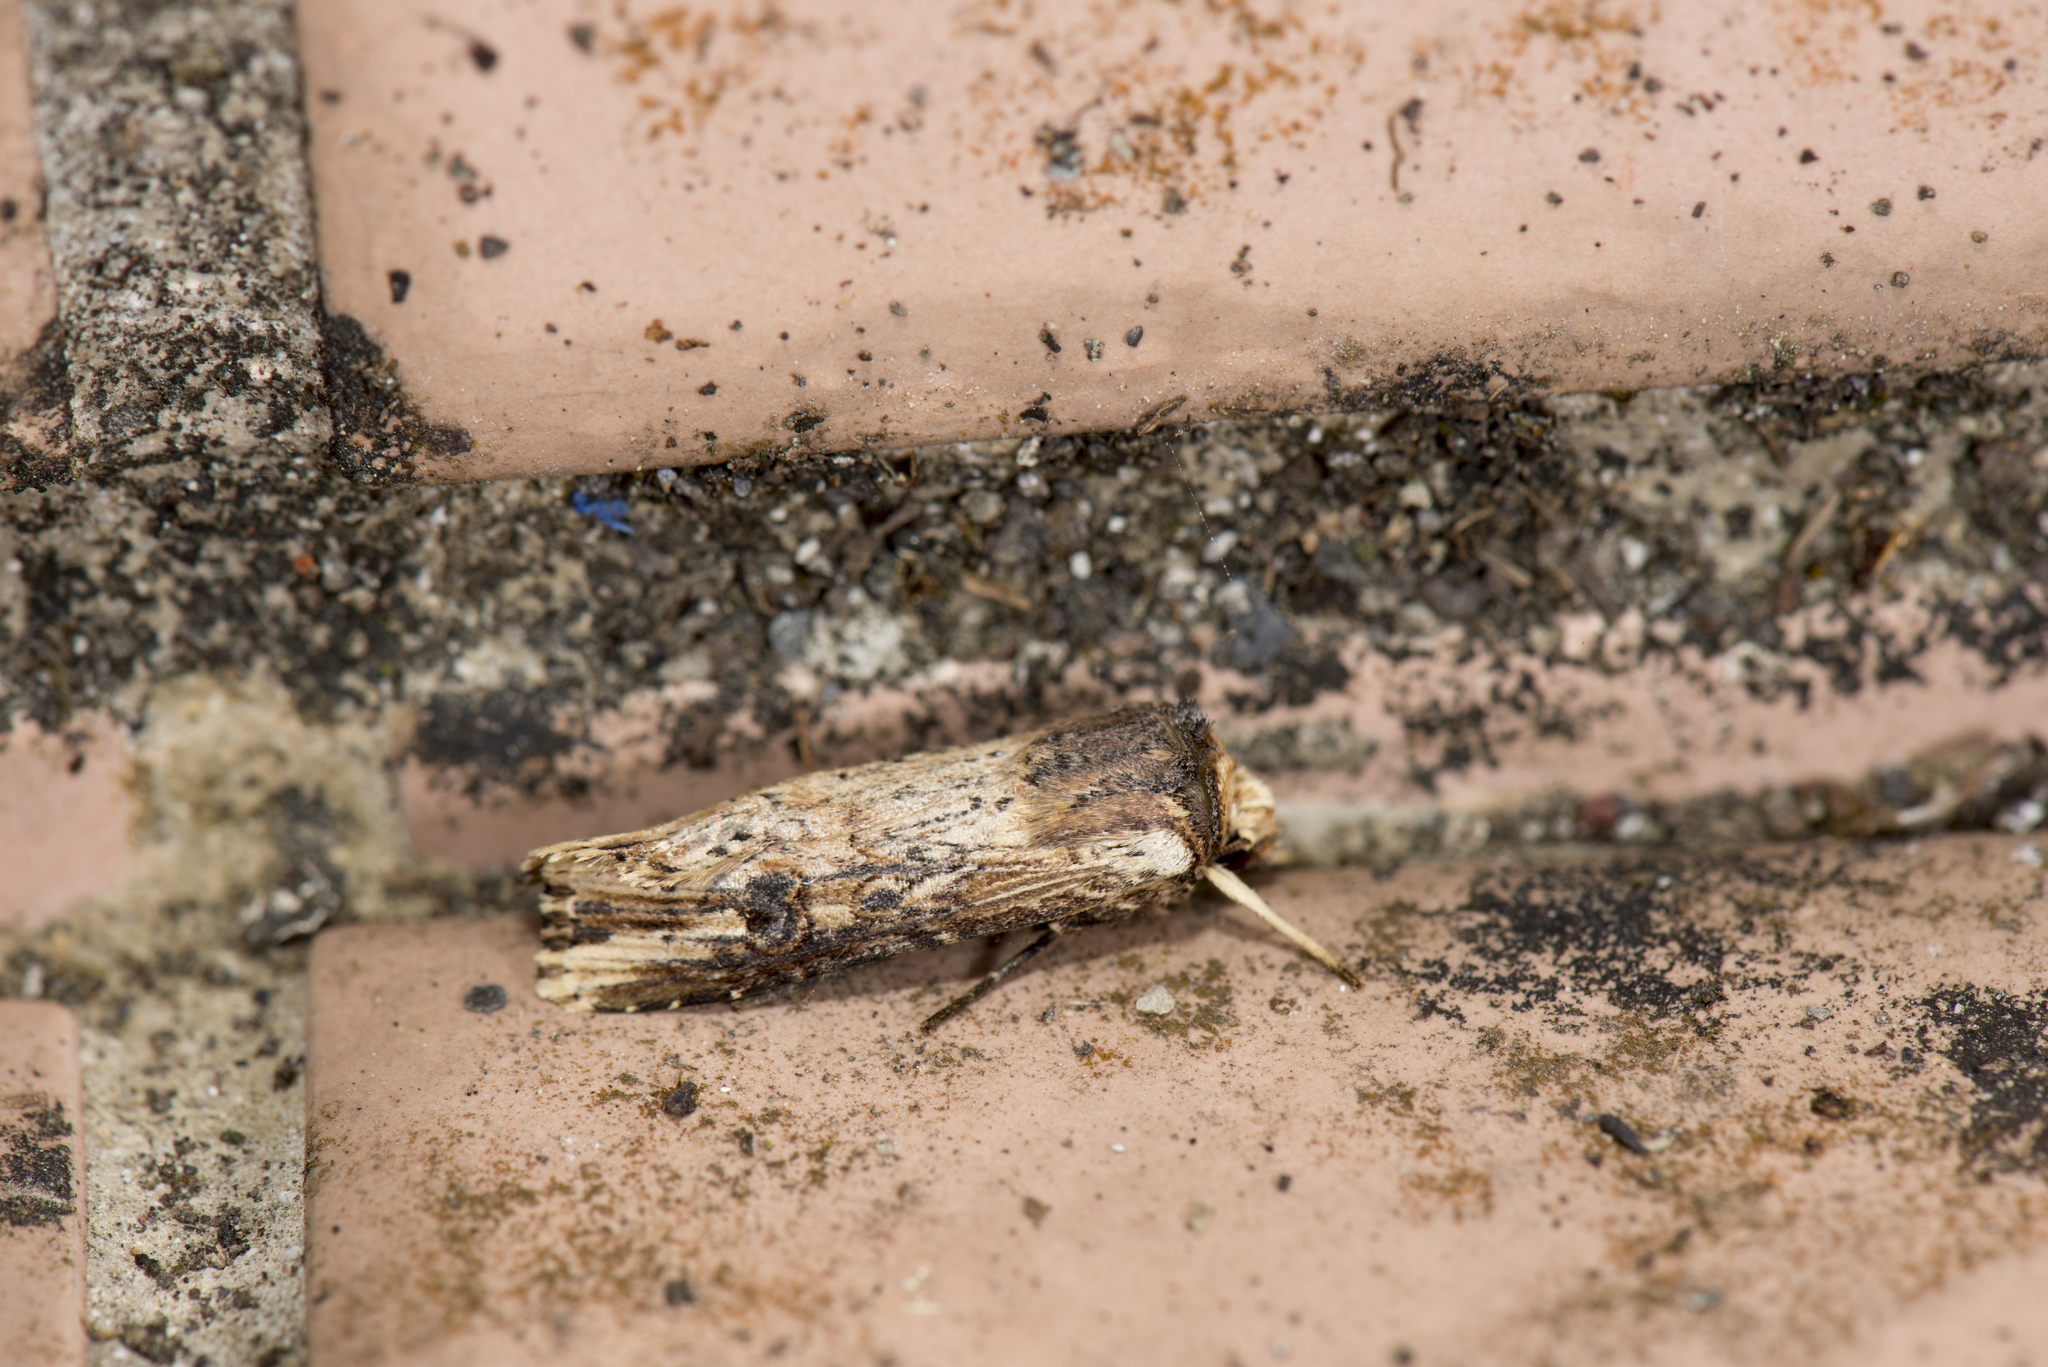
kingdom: Animalia
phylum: Arthropoda
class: Insecta
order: Lepidoptera
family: Noctuidae
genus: Axylia
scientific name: Axylia putris
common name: Flame
